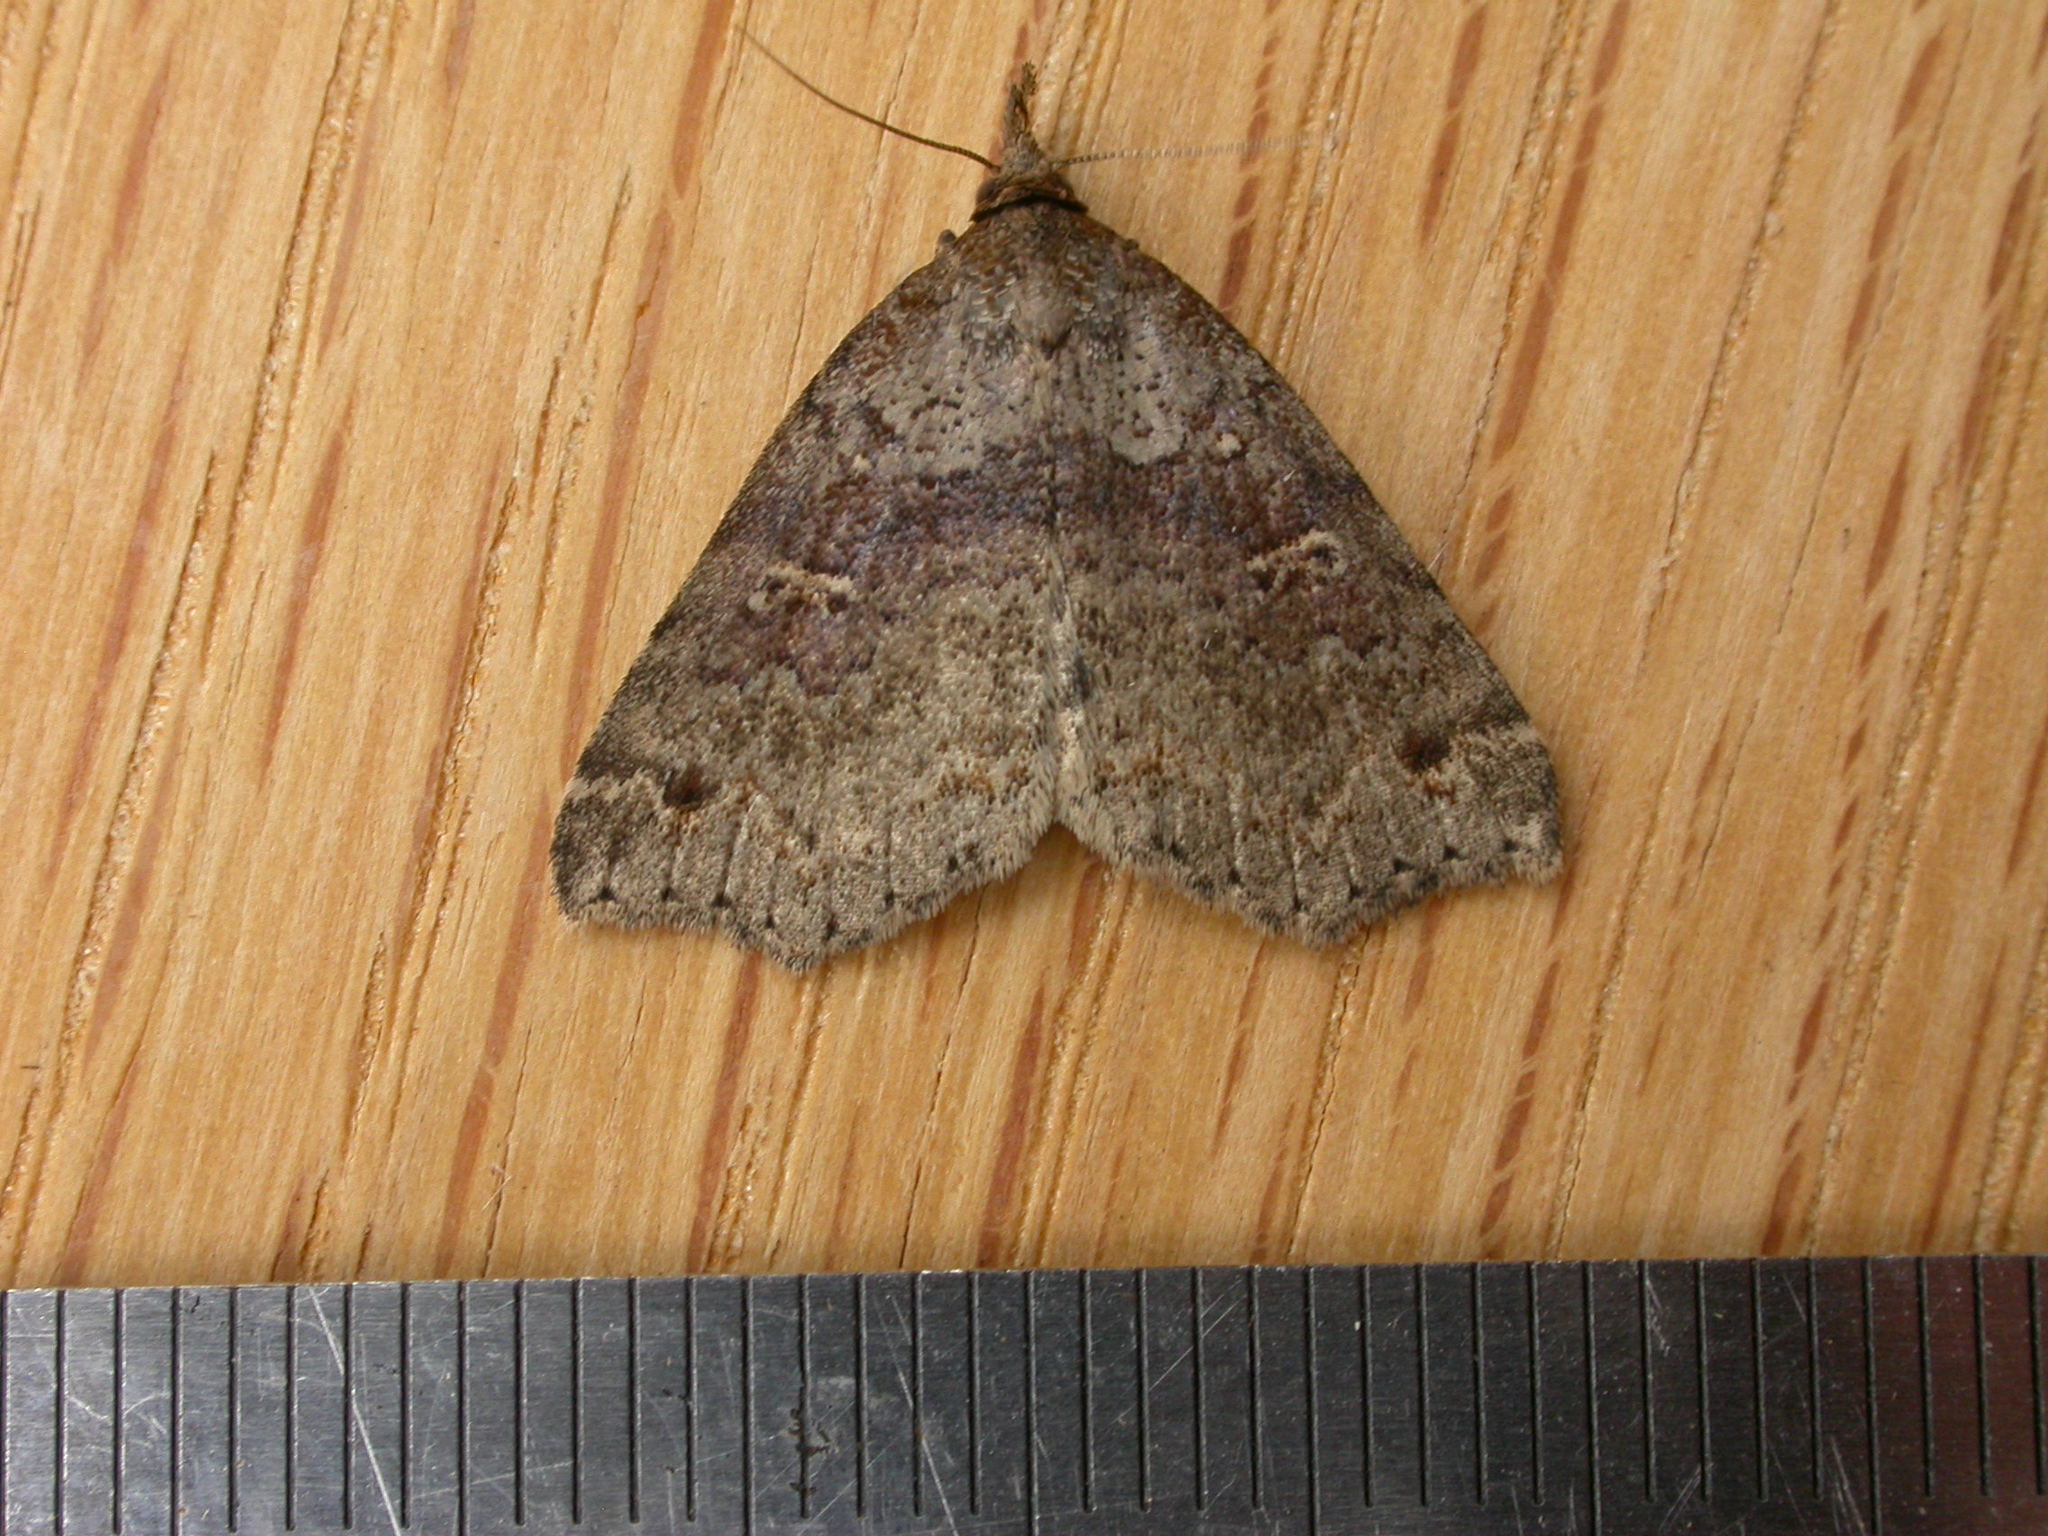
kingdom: Animalia
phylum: Arthropoda
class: Insecta
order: Lepidoptera
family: Erebidae
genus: Lithilaria
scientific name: Lithilaria ossicolor
